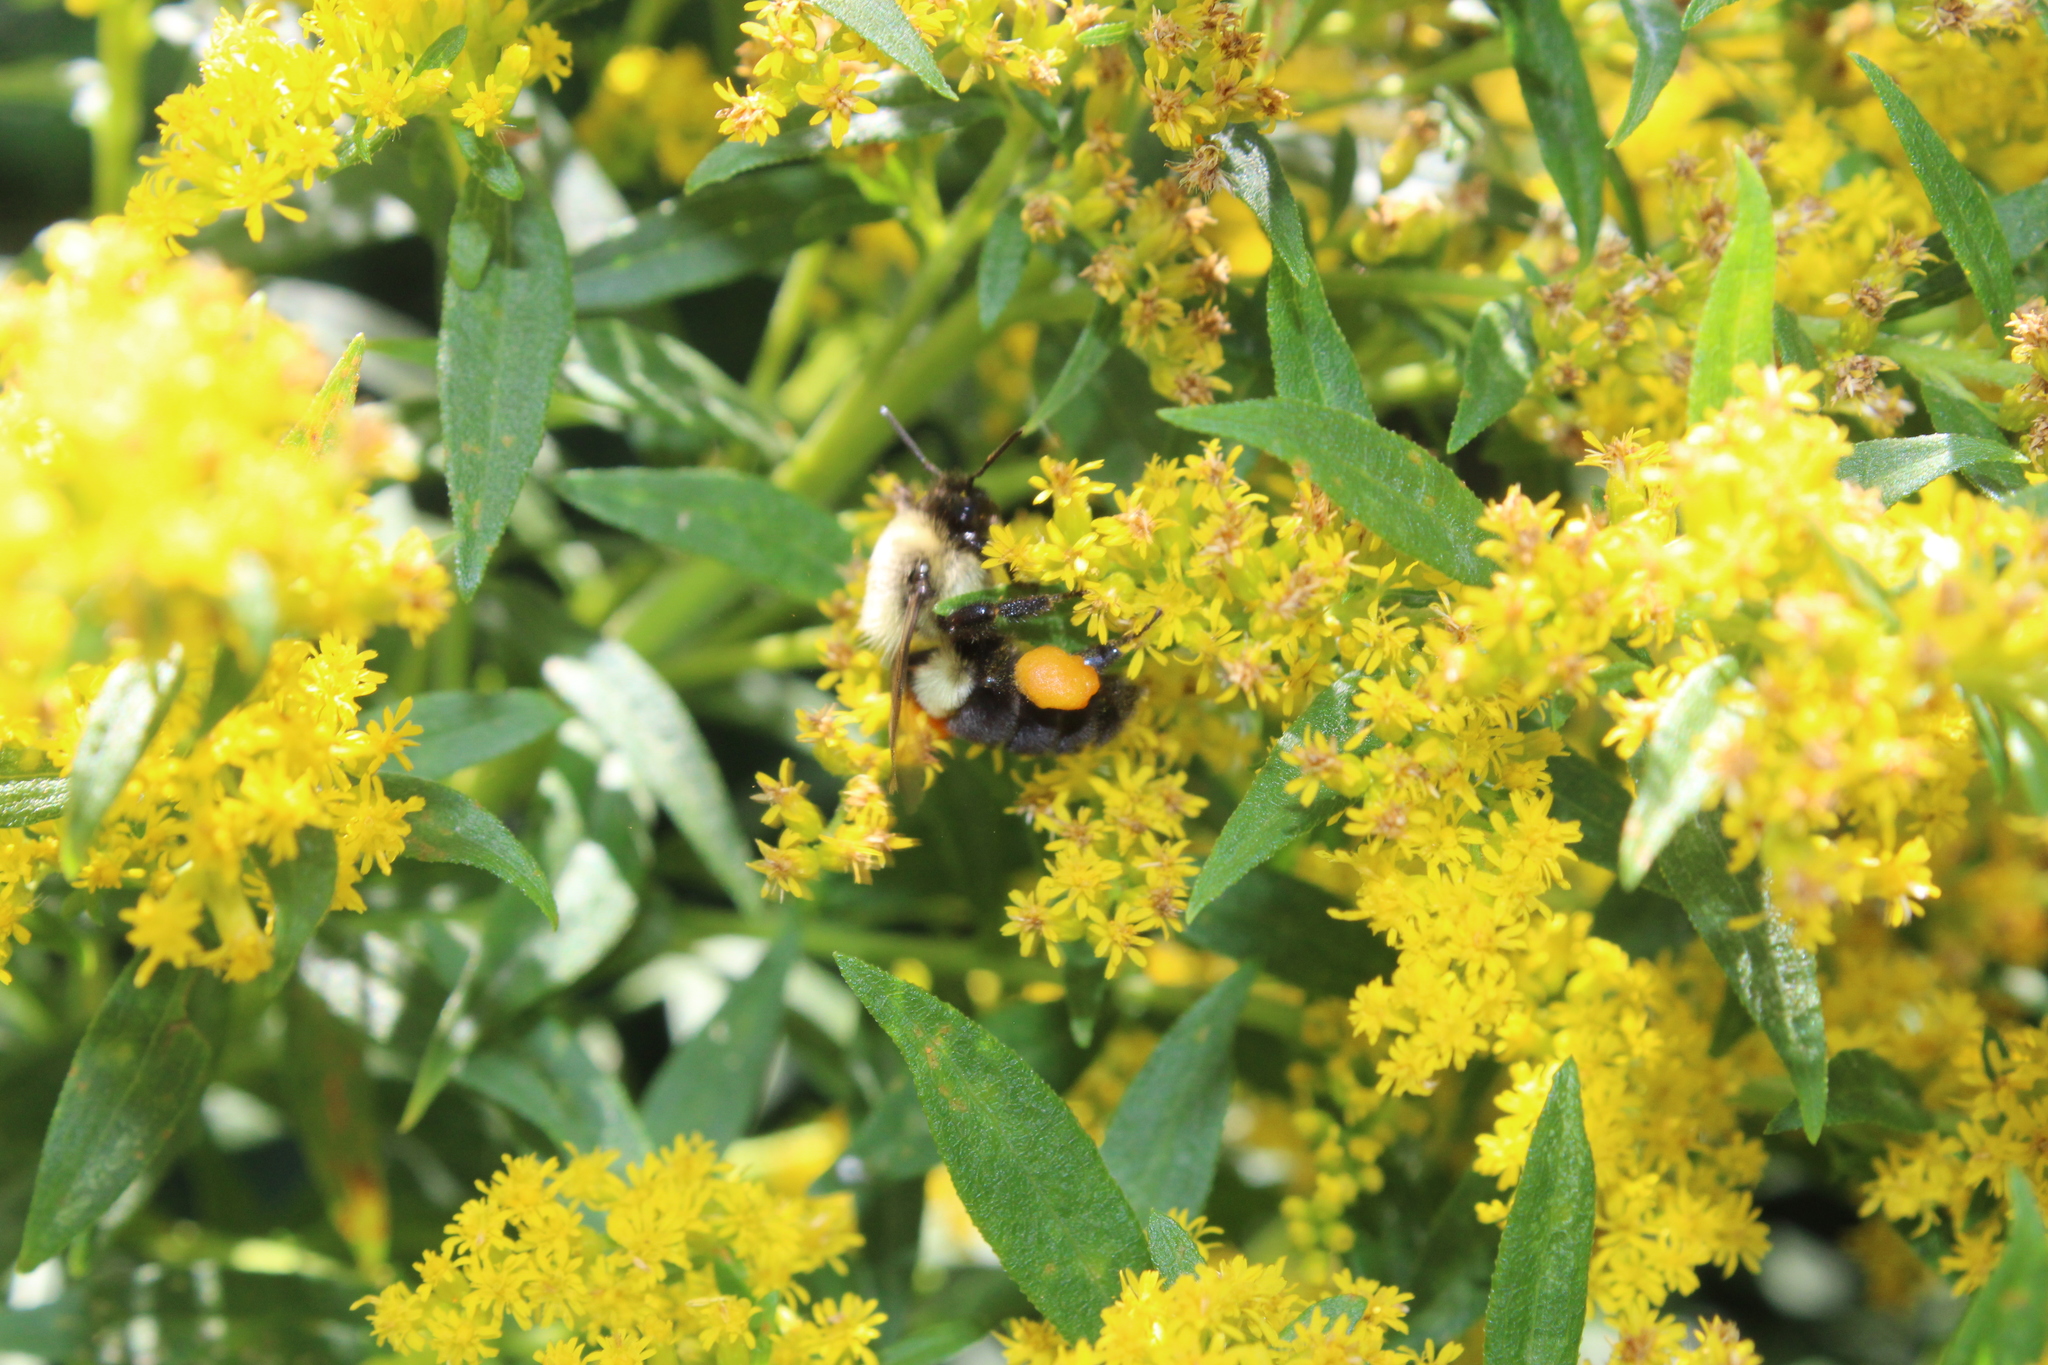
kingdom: Animalia
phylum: Arthropoda
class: Insecta
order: Hymenoptera
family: Apidae
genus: Bombus
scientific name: Bombus impatiens
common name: Common eastern bumble bee
